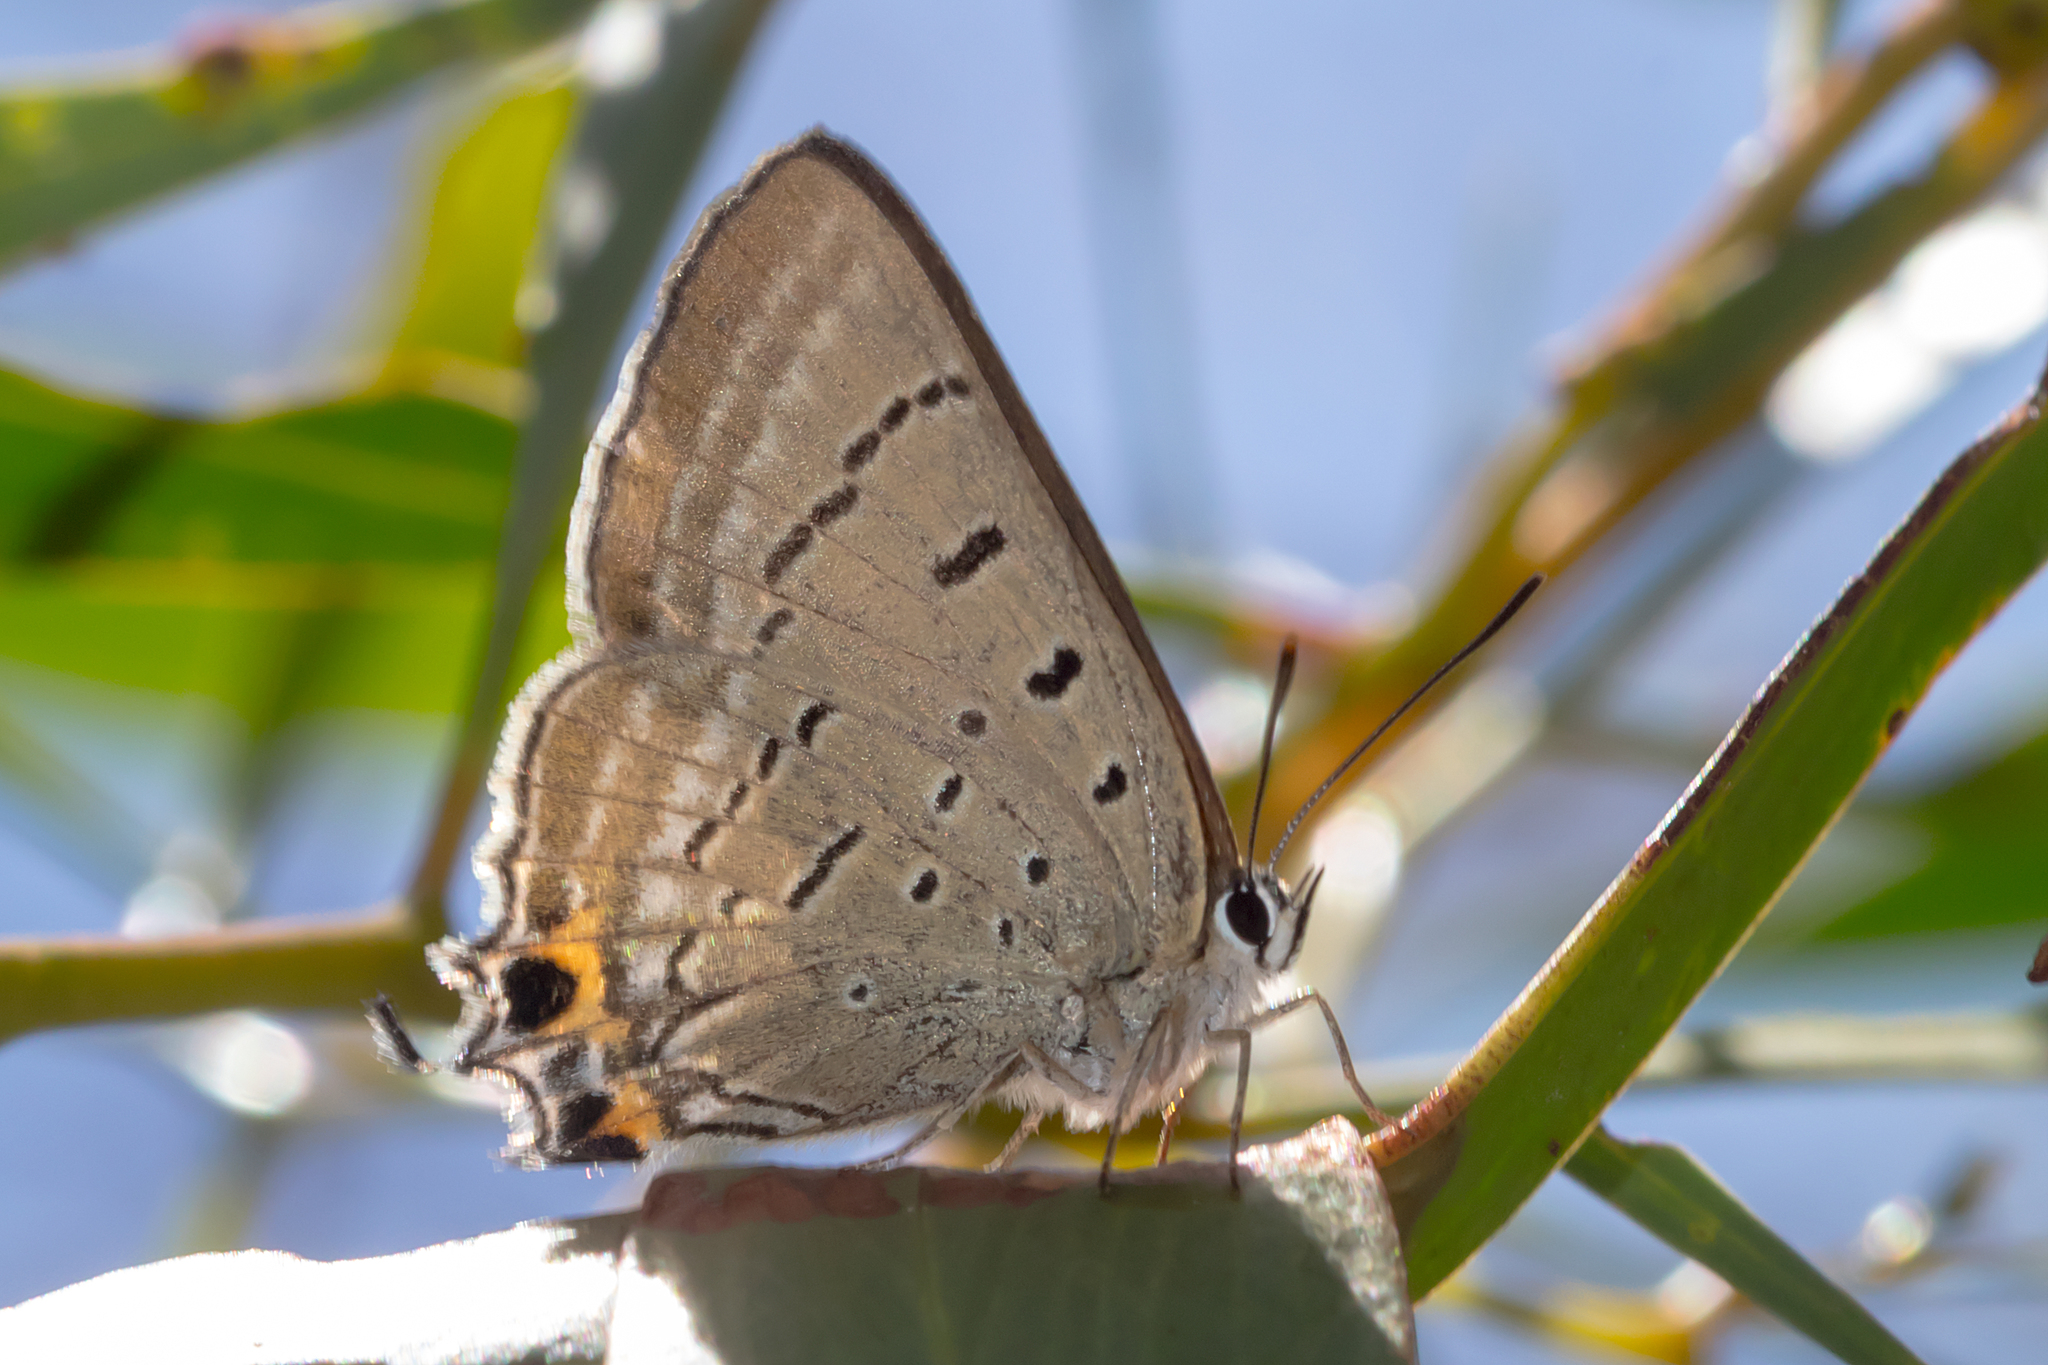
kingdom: Animalia
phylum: Arthropoda
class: Insecta
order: Lepidoptera
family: Lycaenidae
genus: Jalmenus
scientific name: Jalmenus ictinus
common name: Stencilled hairstreak
